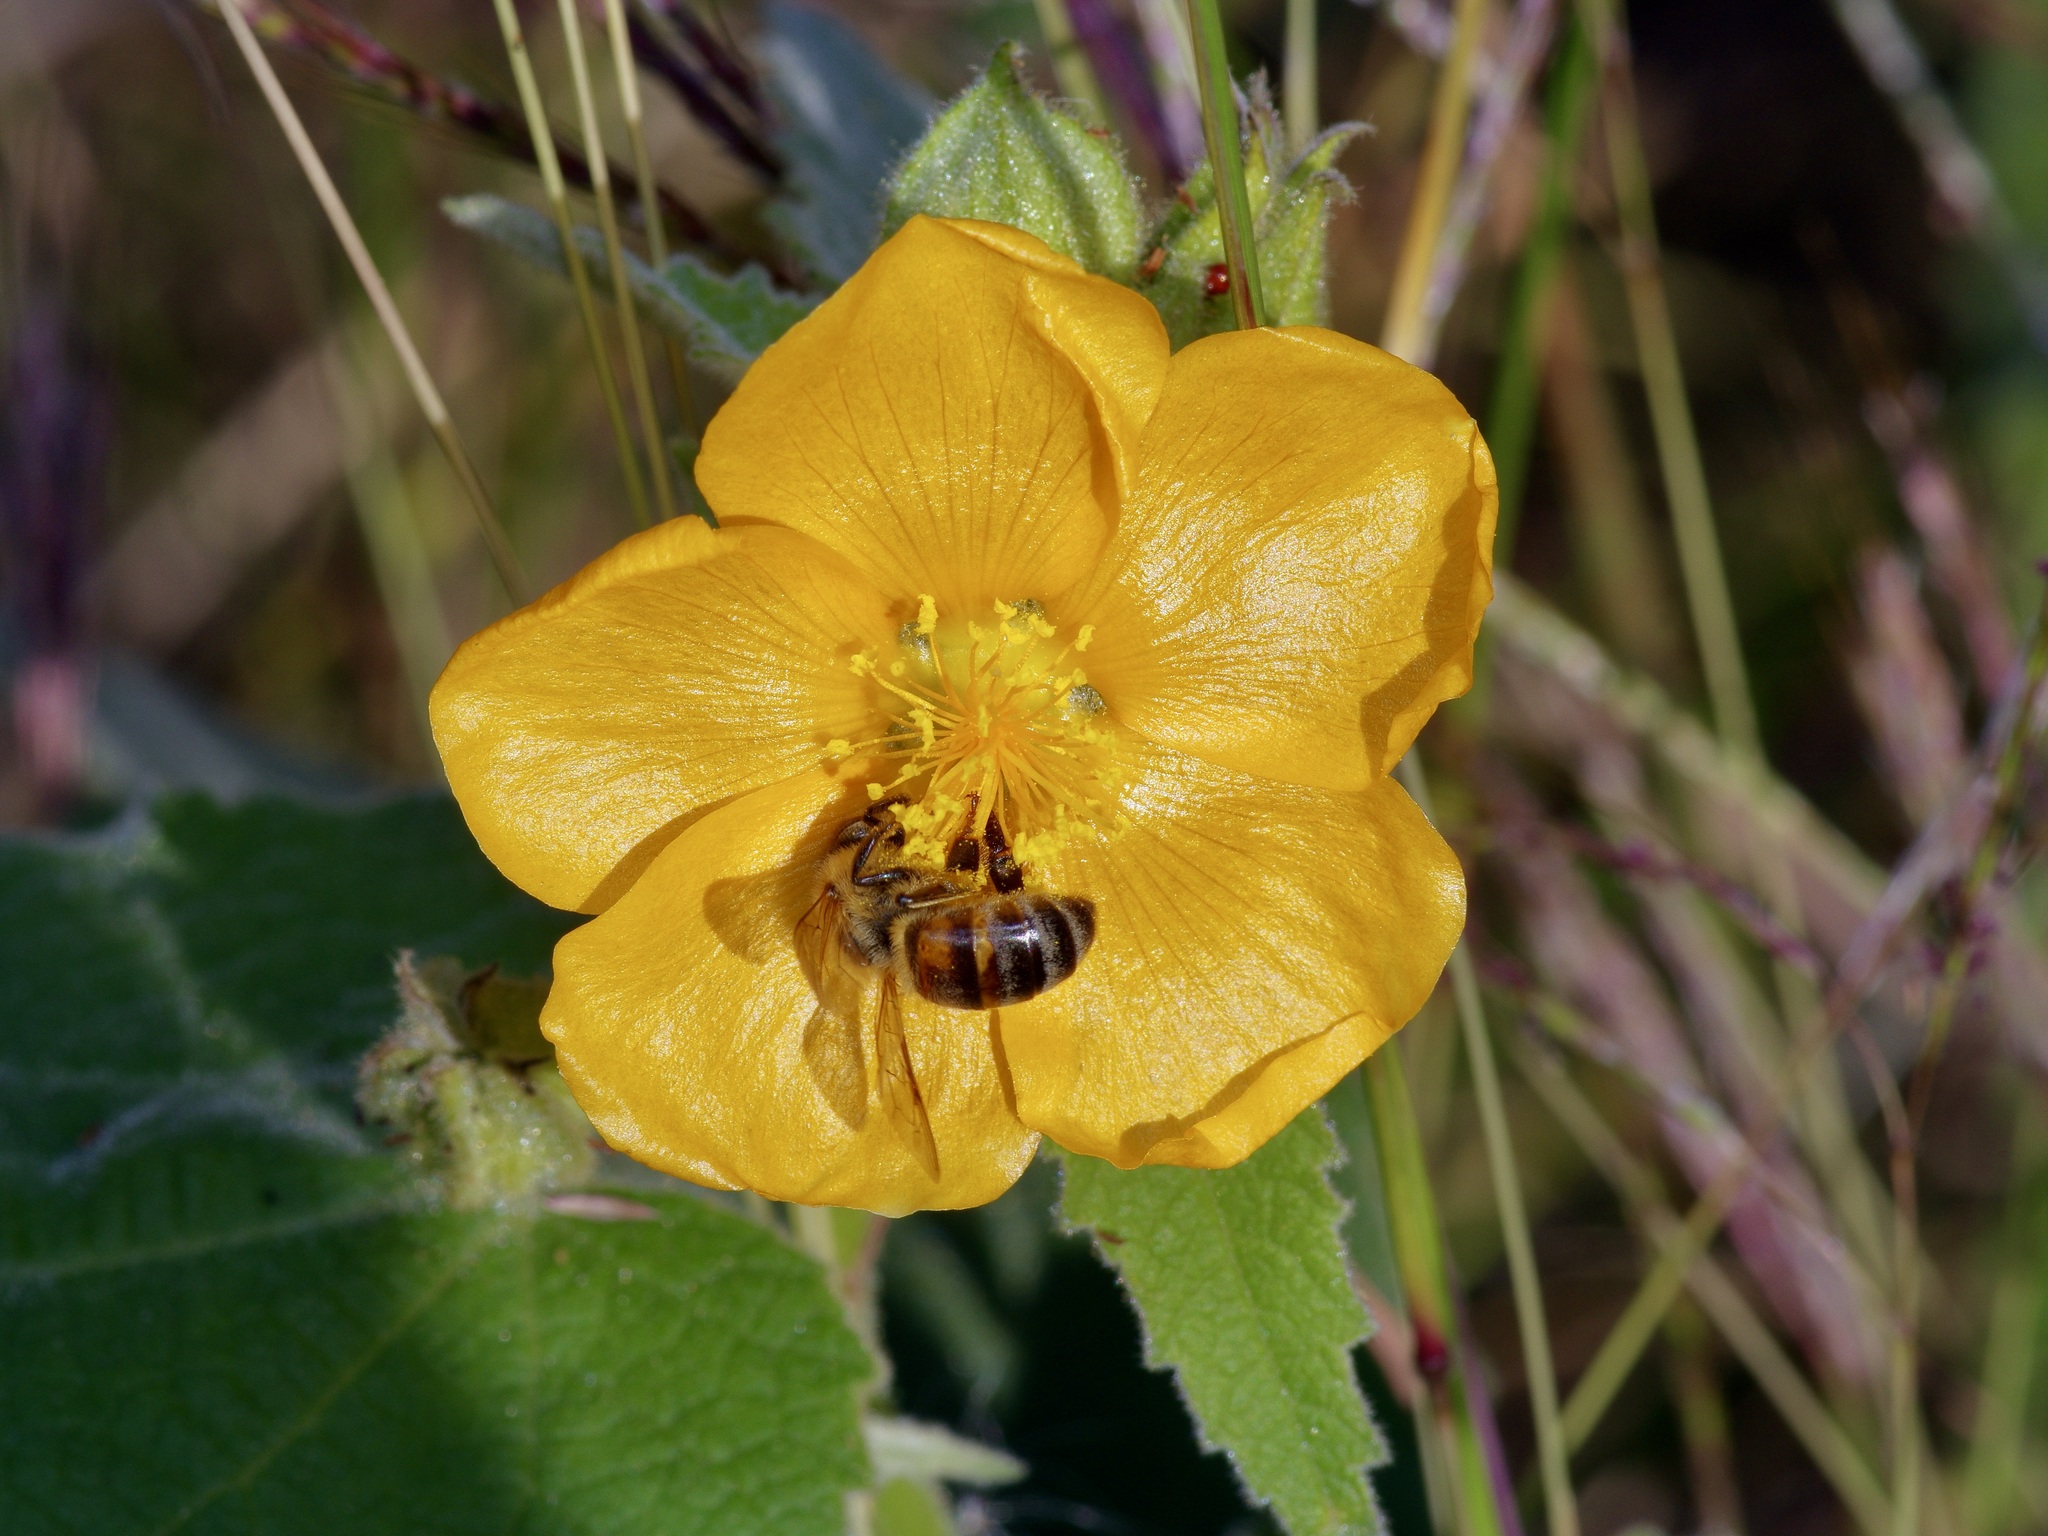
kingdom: Plantae
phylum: Tracheophyta
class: Magnoliopsida
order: Malvales
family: Malvaceae
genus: Allowissadula
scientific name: Allowissadula holosericea
